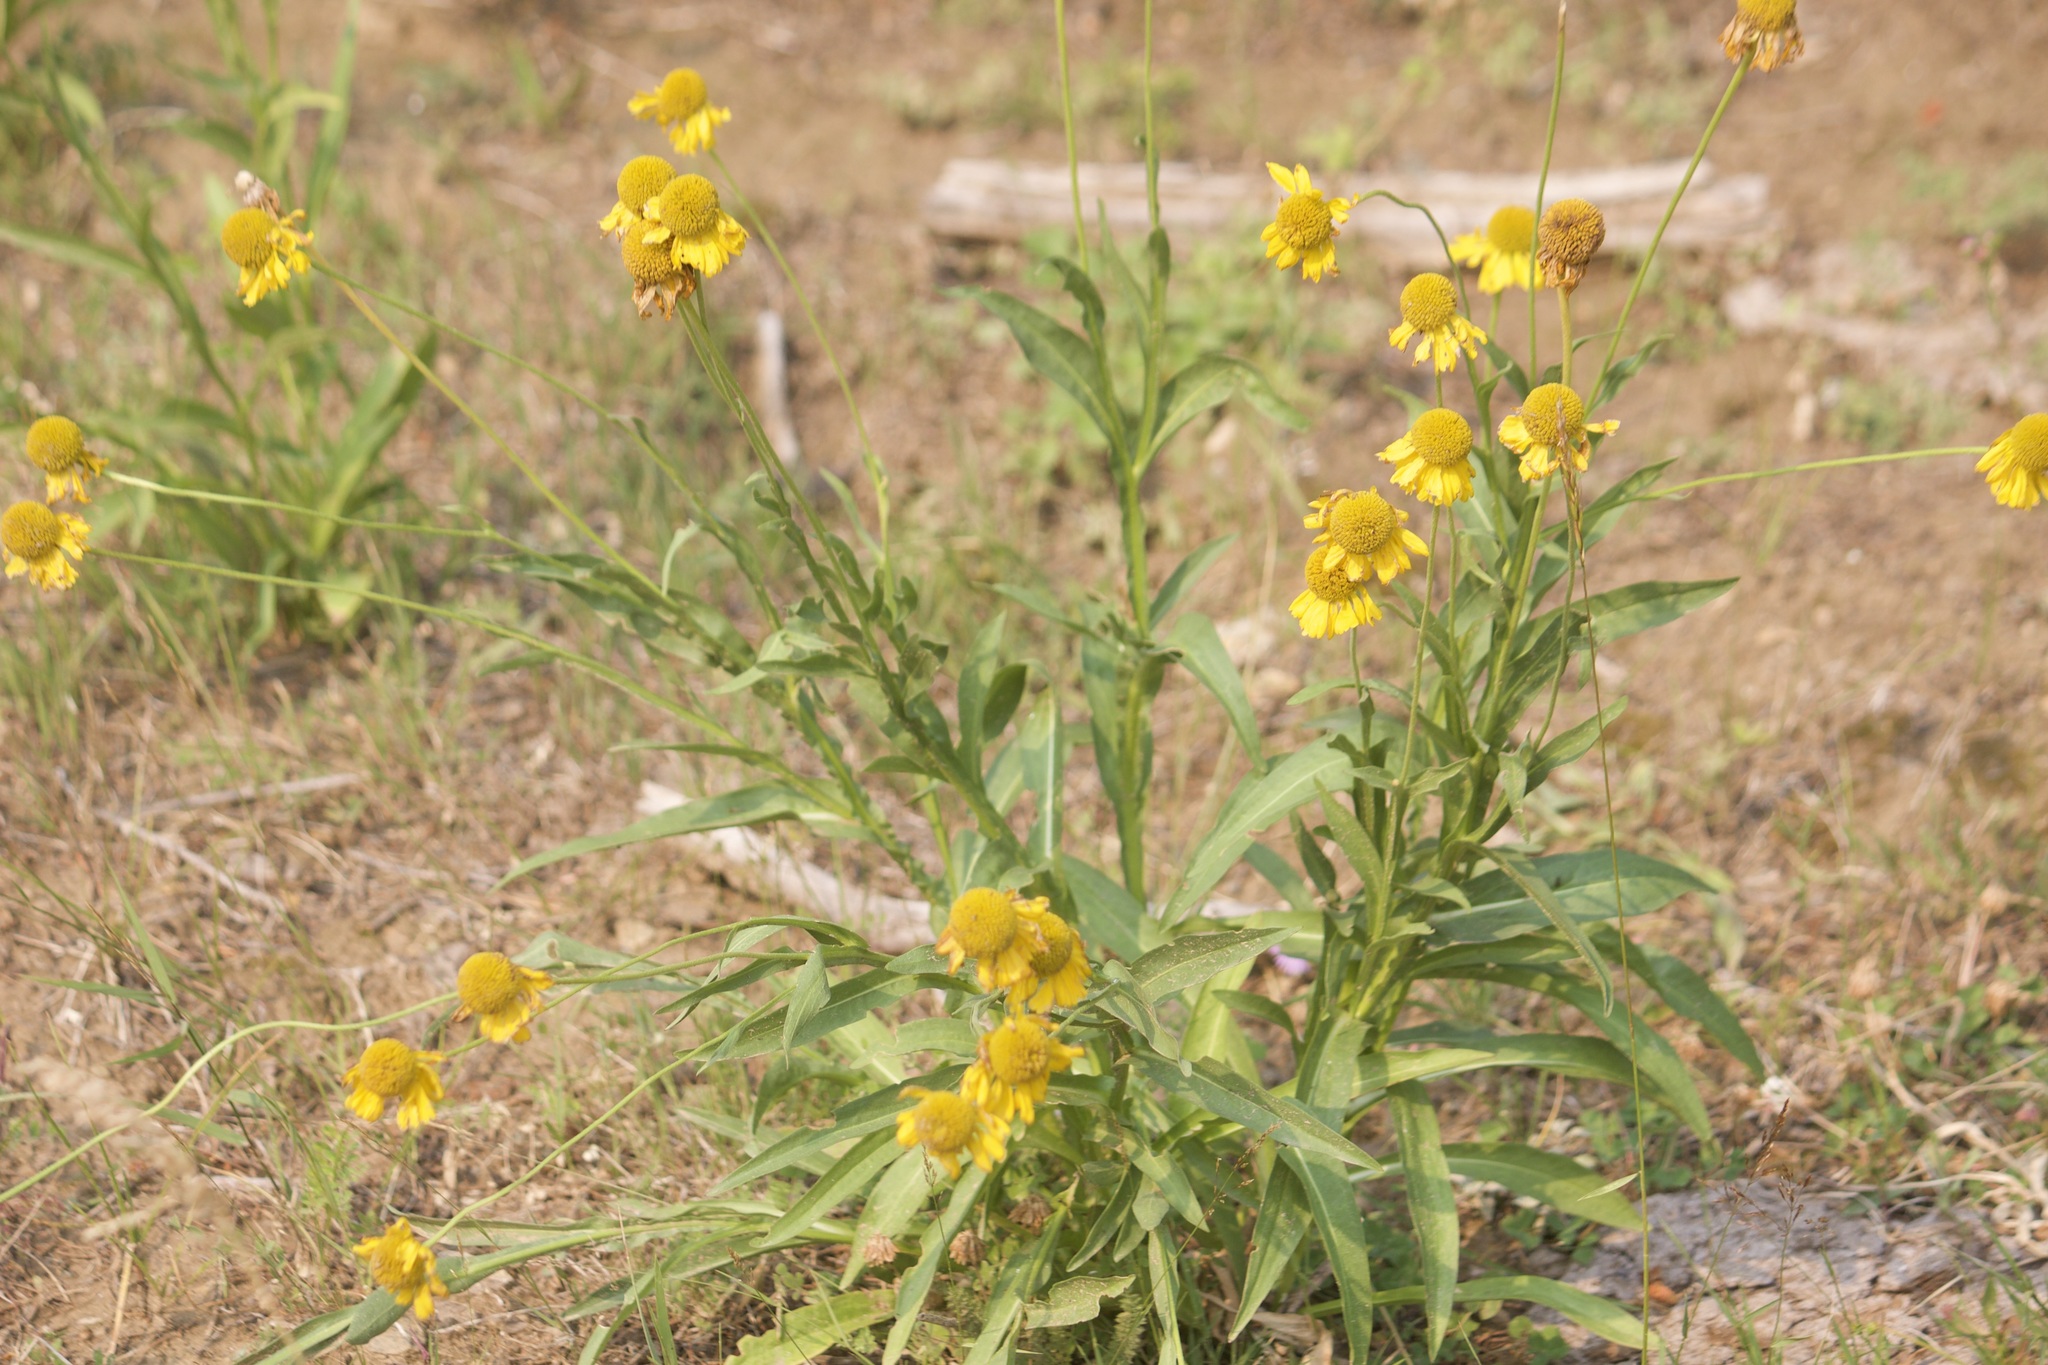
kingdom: Plantae
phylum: Tracheophyta
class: Magnoliopsida
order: Asterales
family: Asteraceae
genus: Helenium
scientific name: Helenium bigelovii
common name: Bigelow's sneezeweed
